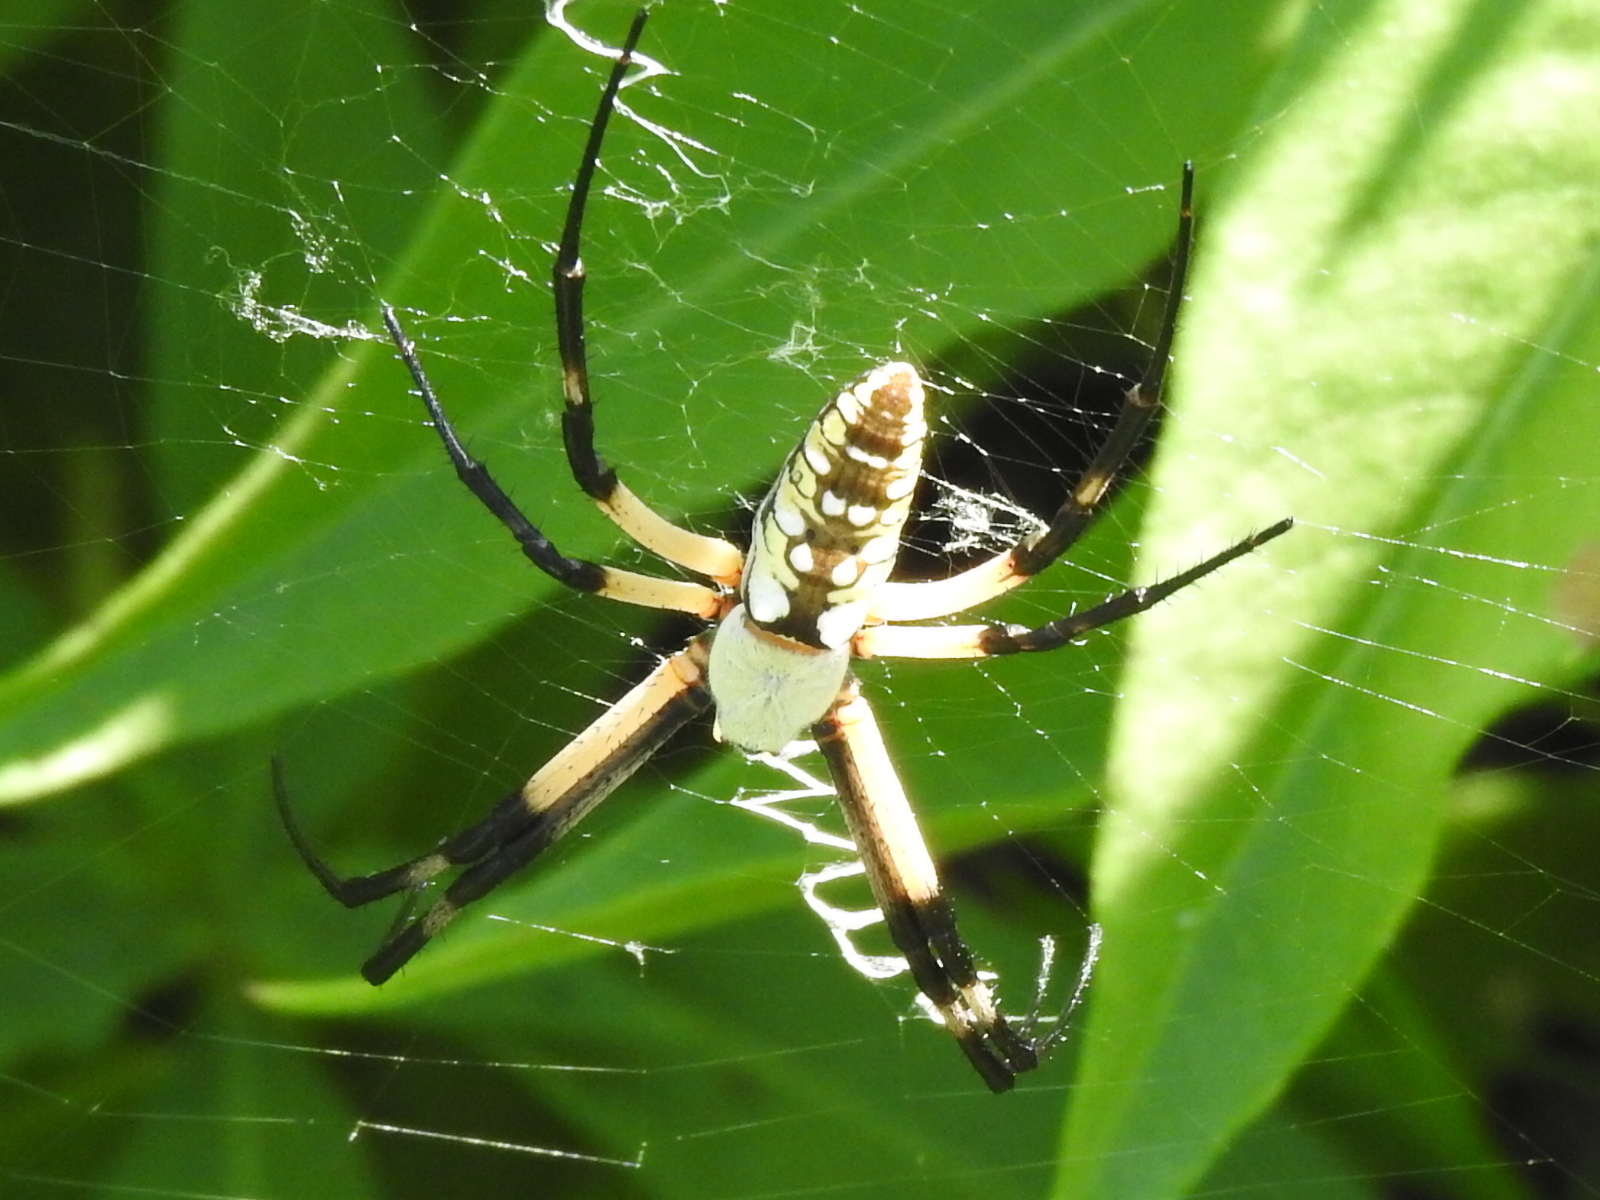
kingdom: Animalia
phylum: Arthropoda
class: Arachnida
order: Araneae
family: Araneidae
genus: Argiope
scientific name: Argiope aurantia
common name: Orb weavers
